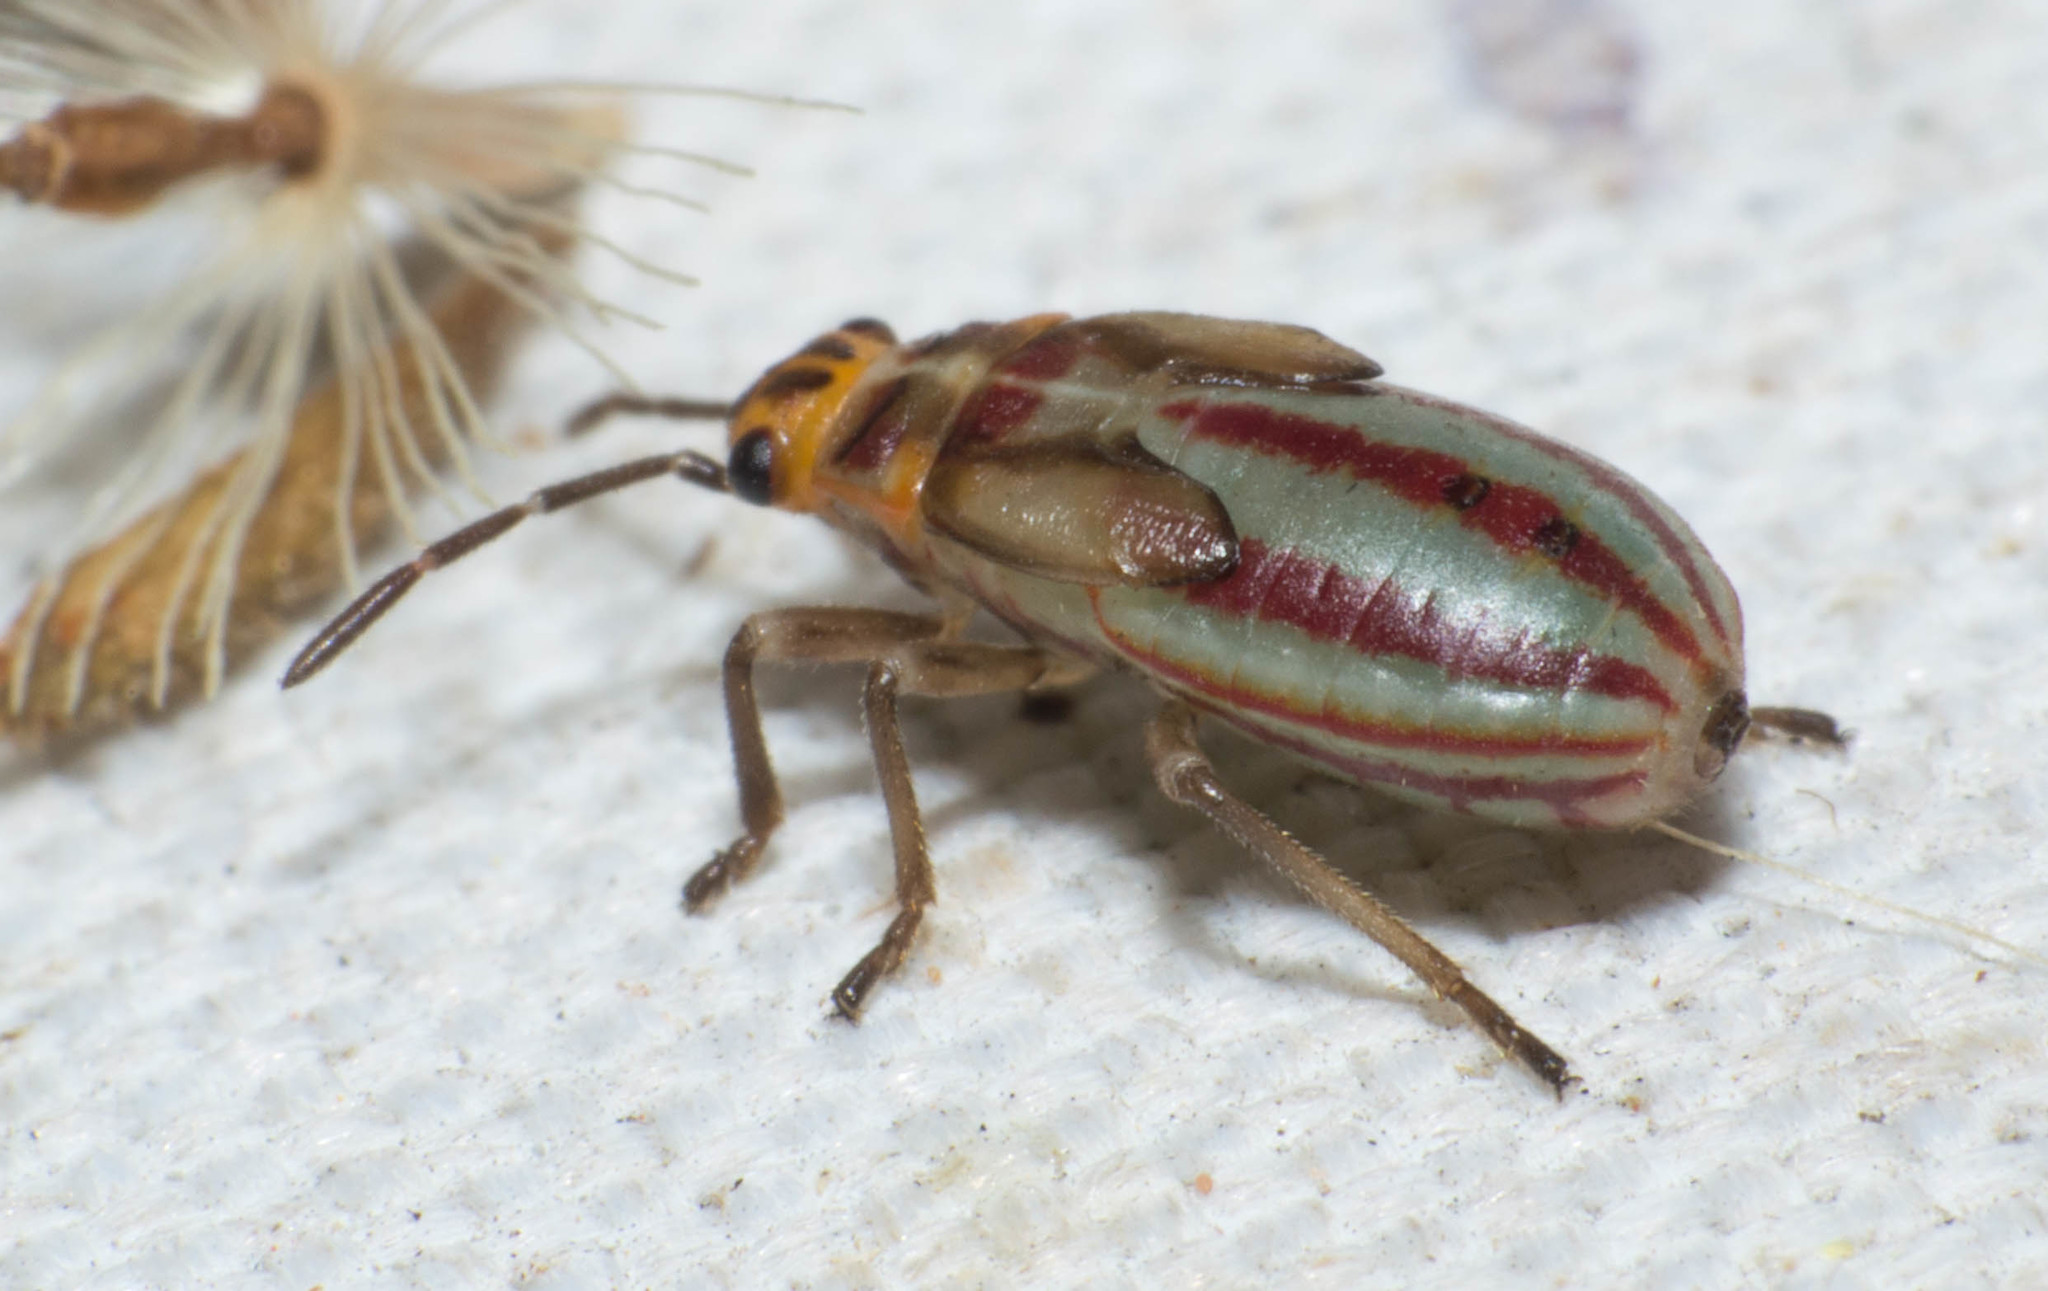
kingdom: Animalia
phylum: Arthropoda
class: Insecta
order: Hemiptera
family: Lygaeidae
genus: Torvochrimnus
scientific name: Torvochrimnus poeyi
